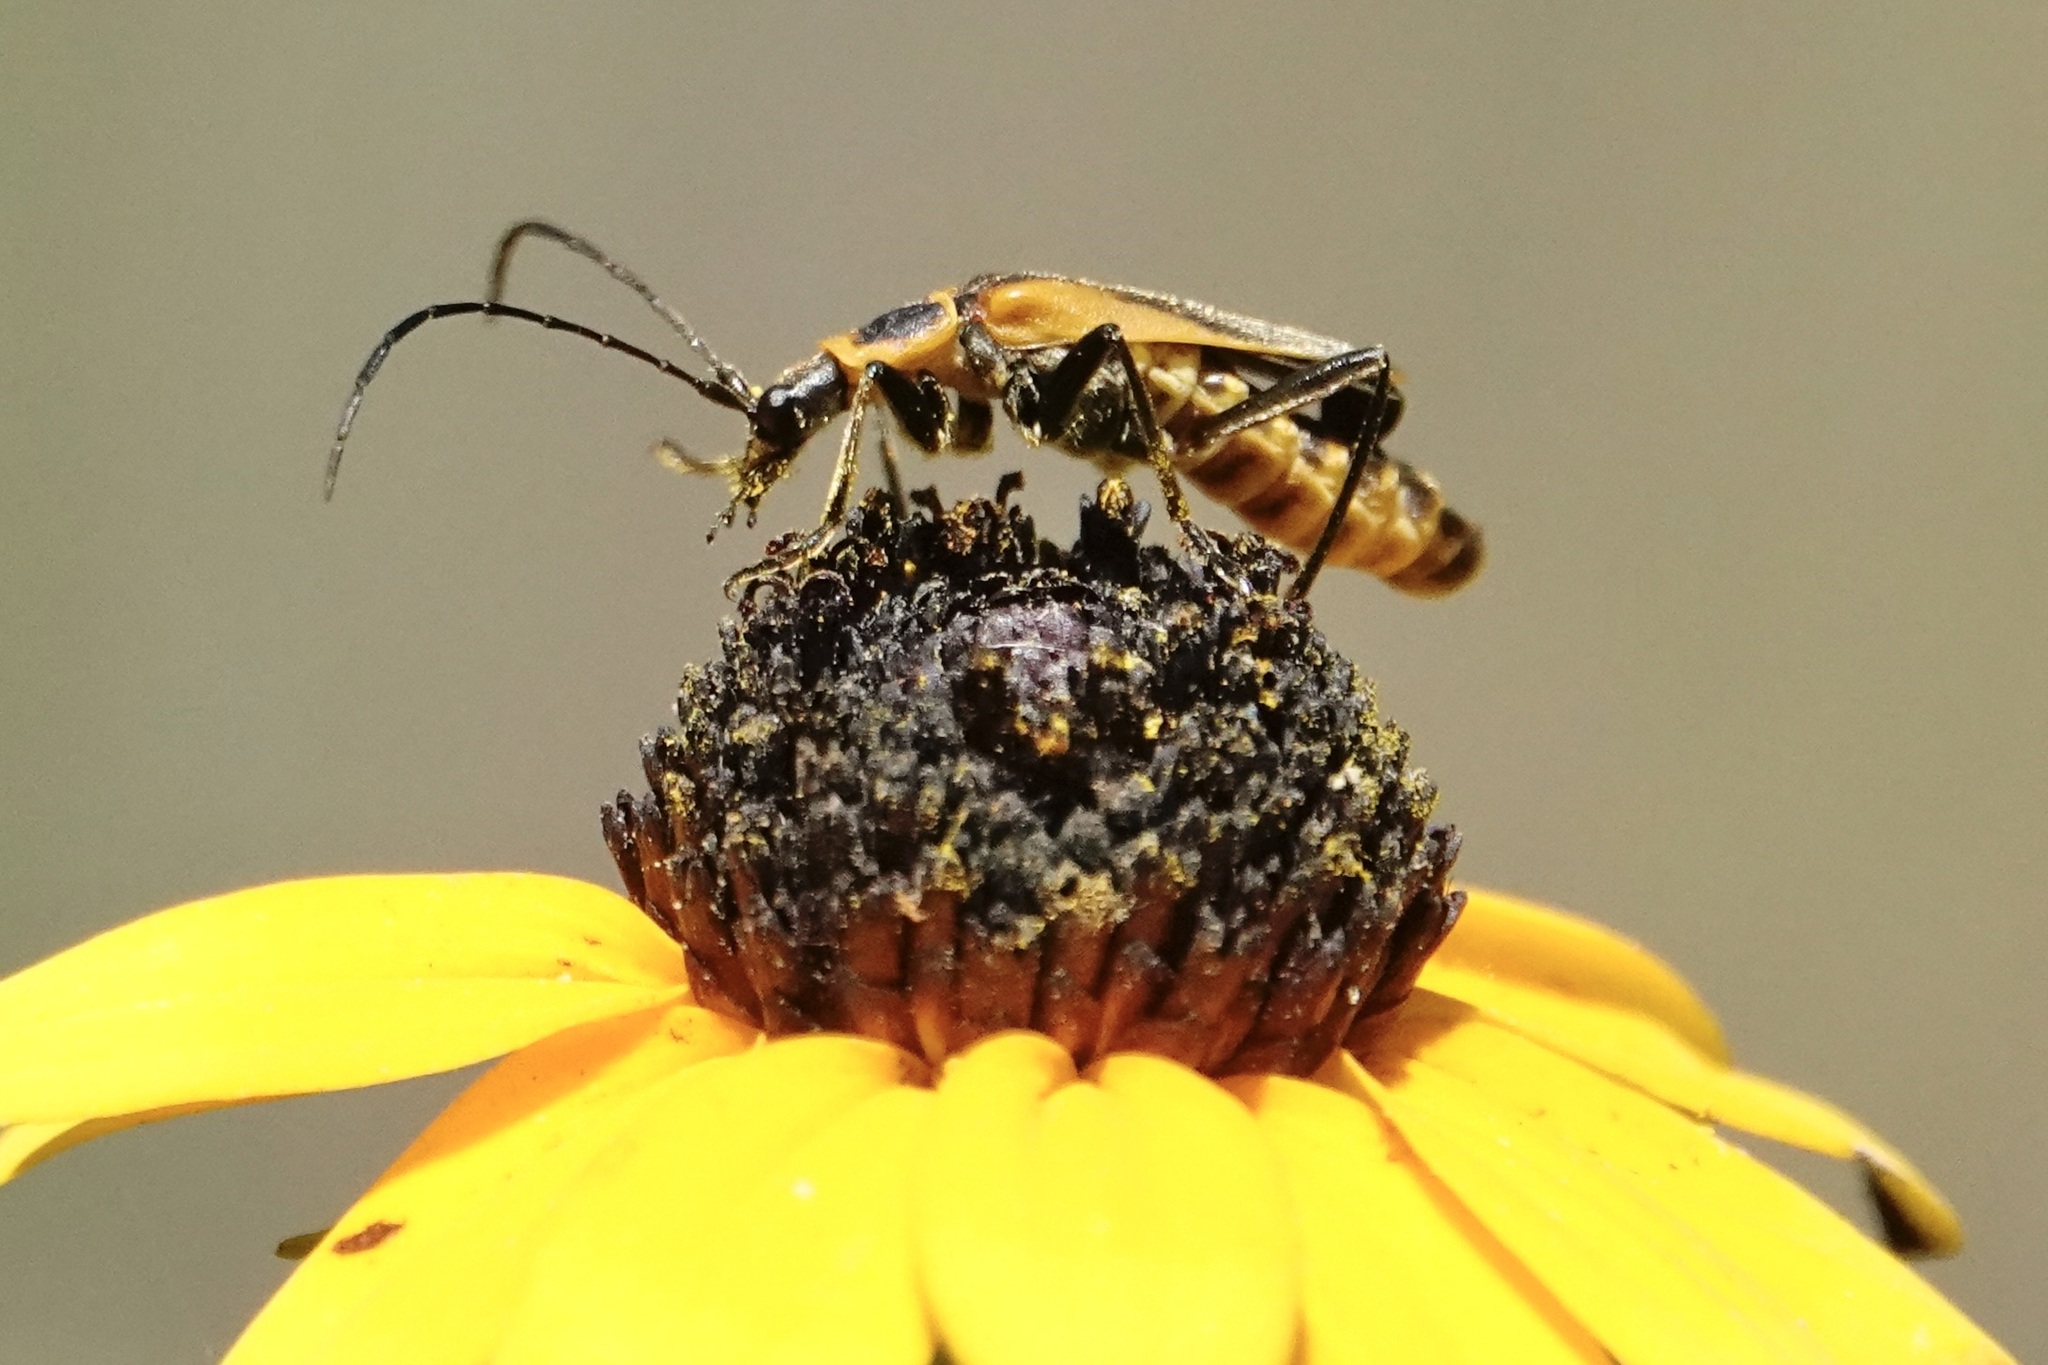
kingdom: Animalia
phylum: Arthropoda
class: Insecta
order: Coleoptera
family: Cantharidae
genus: Chauliognathus
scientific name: Chauliognathus pensylvanicus
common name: Goldenrod soldier beetle
